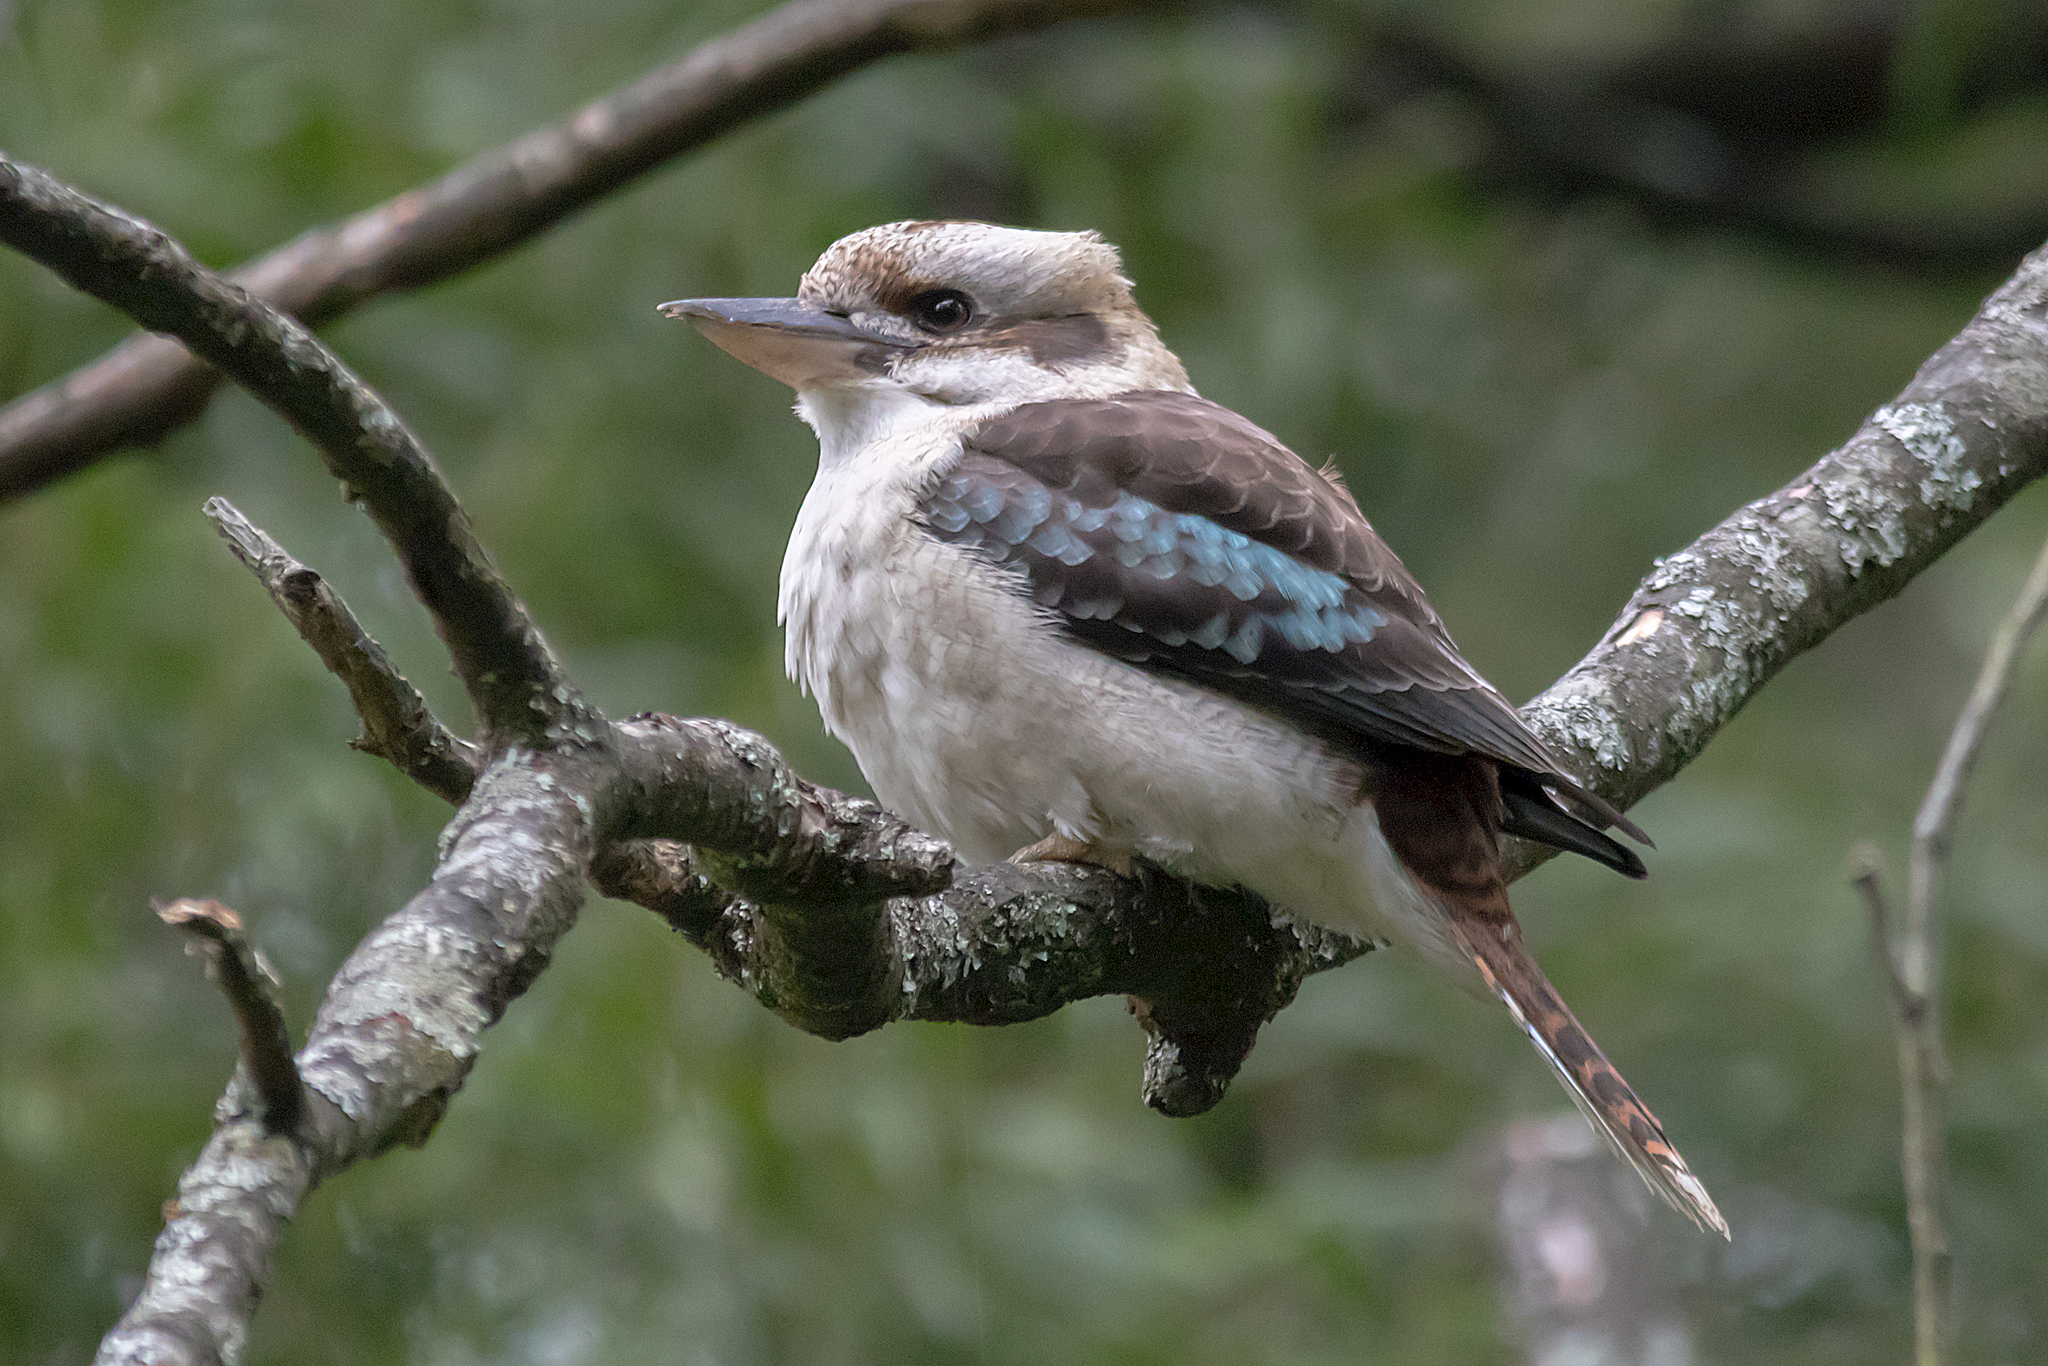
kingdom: Animalia
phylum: Chordata
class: Aves
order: Coraciiformes
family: Alcedinidae
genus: Dacelo
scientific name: Dacelo novaeguineae
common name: Laughing kookaburra
